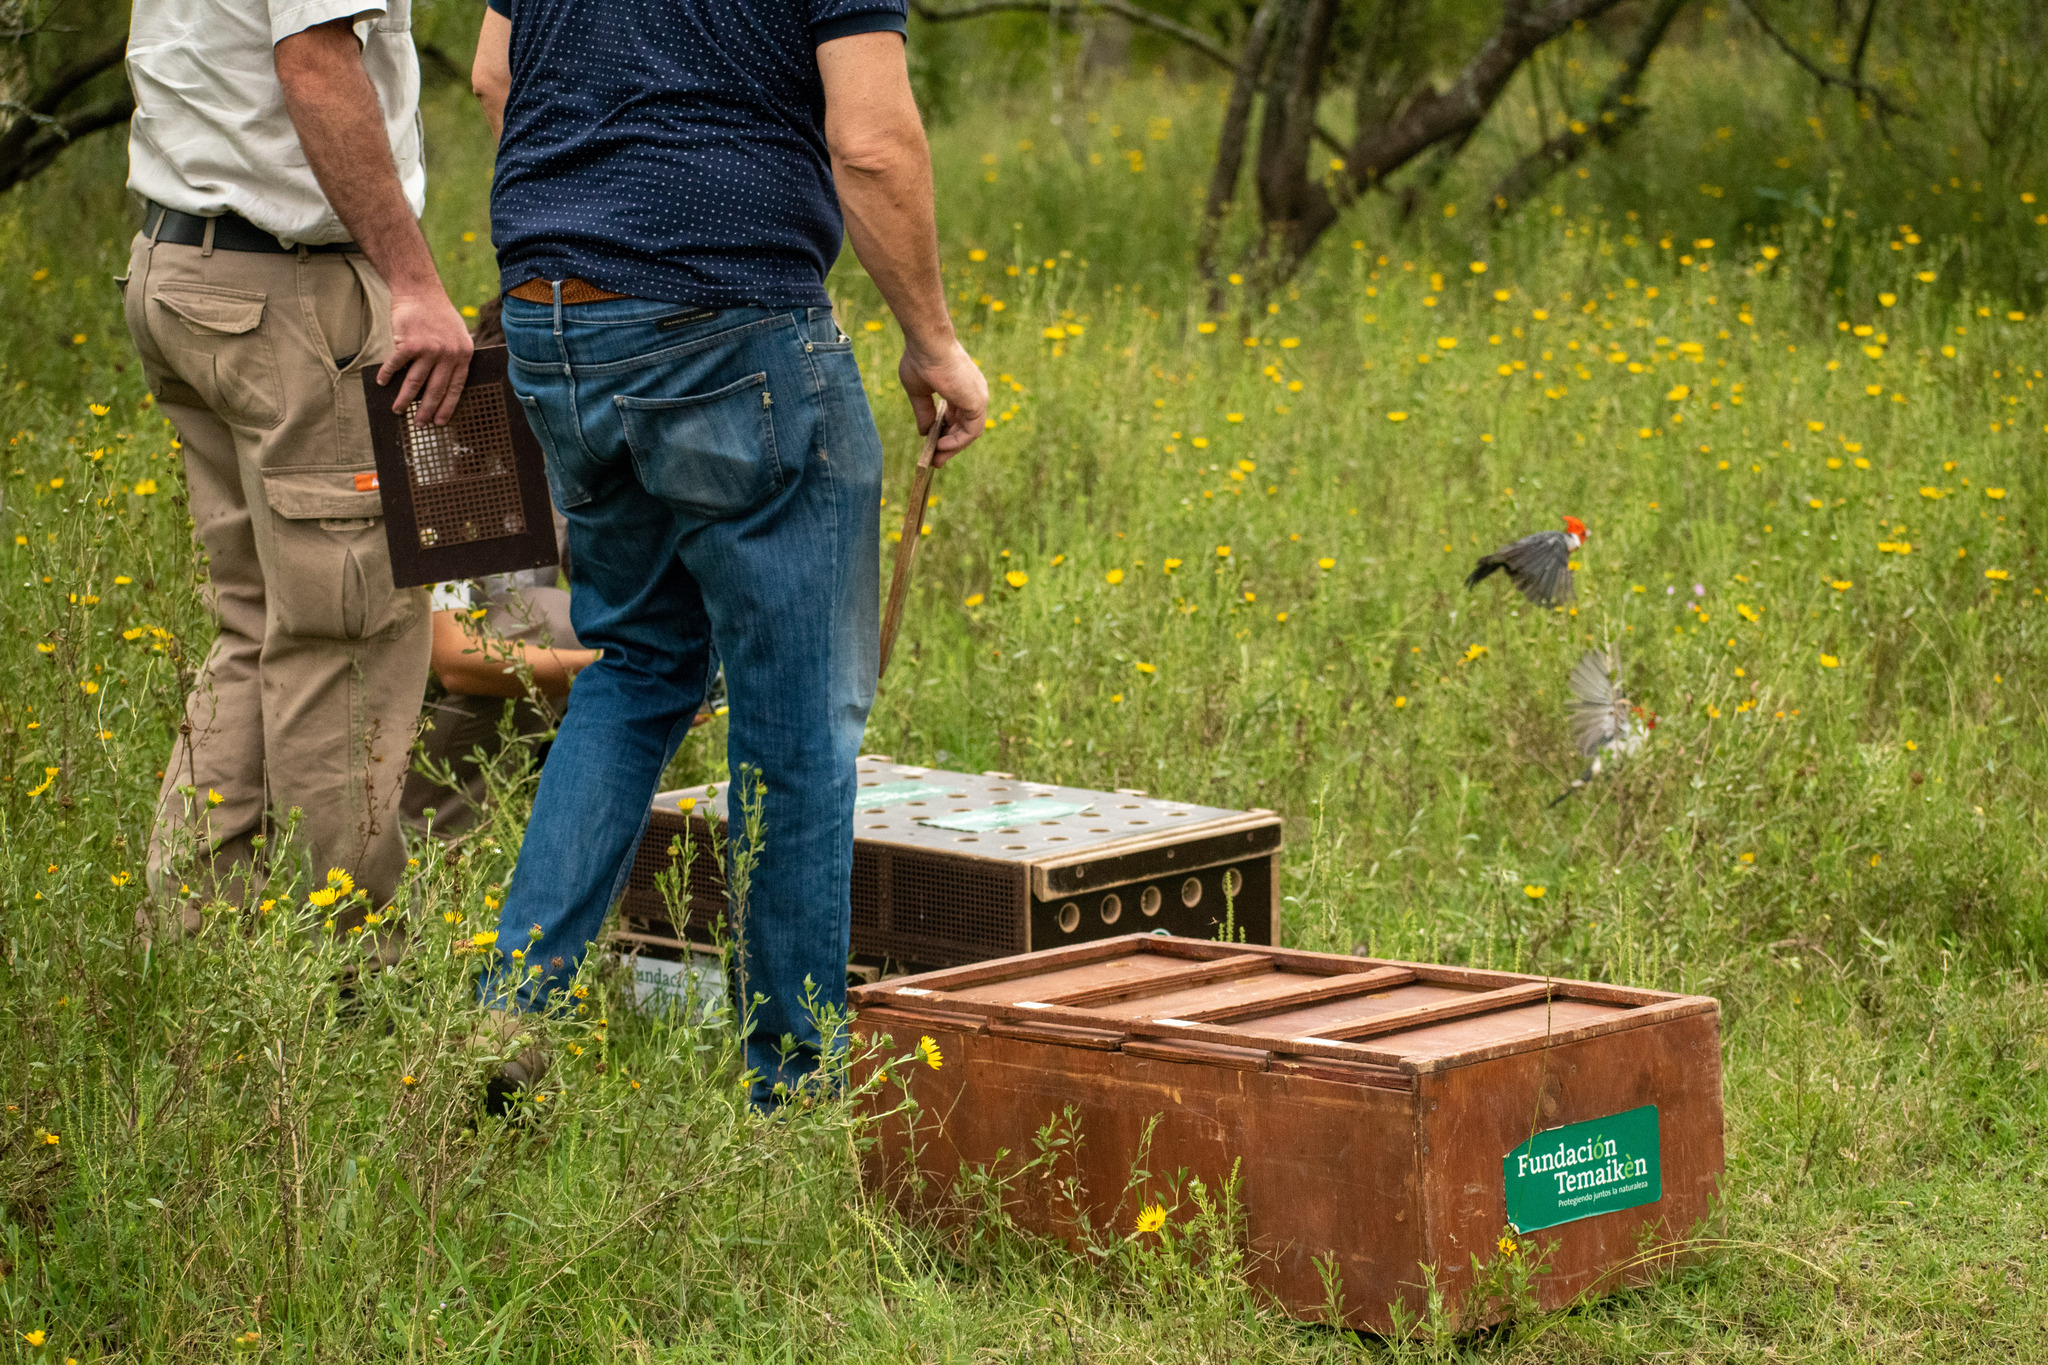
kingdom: Animalia
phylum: Chordata
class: Aves
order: Passeriformes
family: Thraupidae
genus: Paroaria
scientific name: Paroaria coronata
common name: Red-crested cardinal
